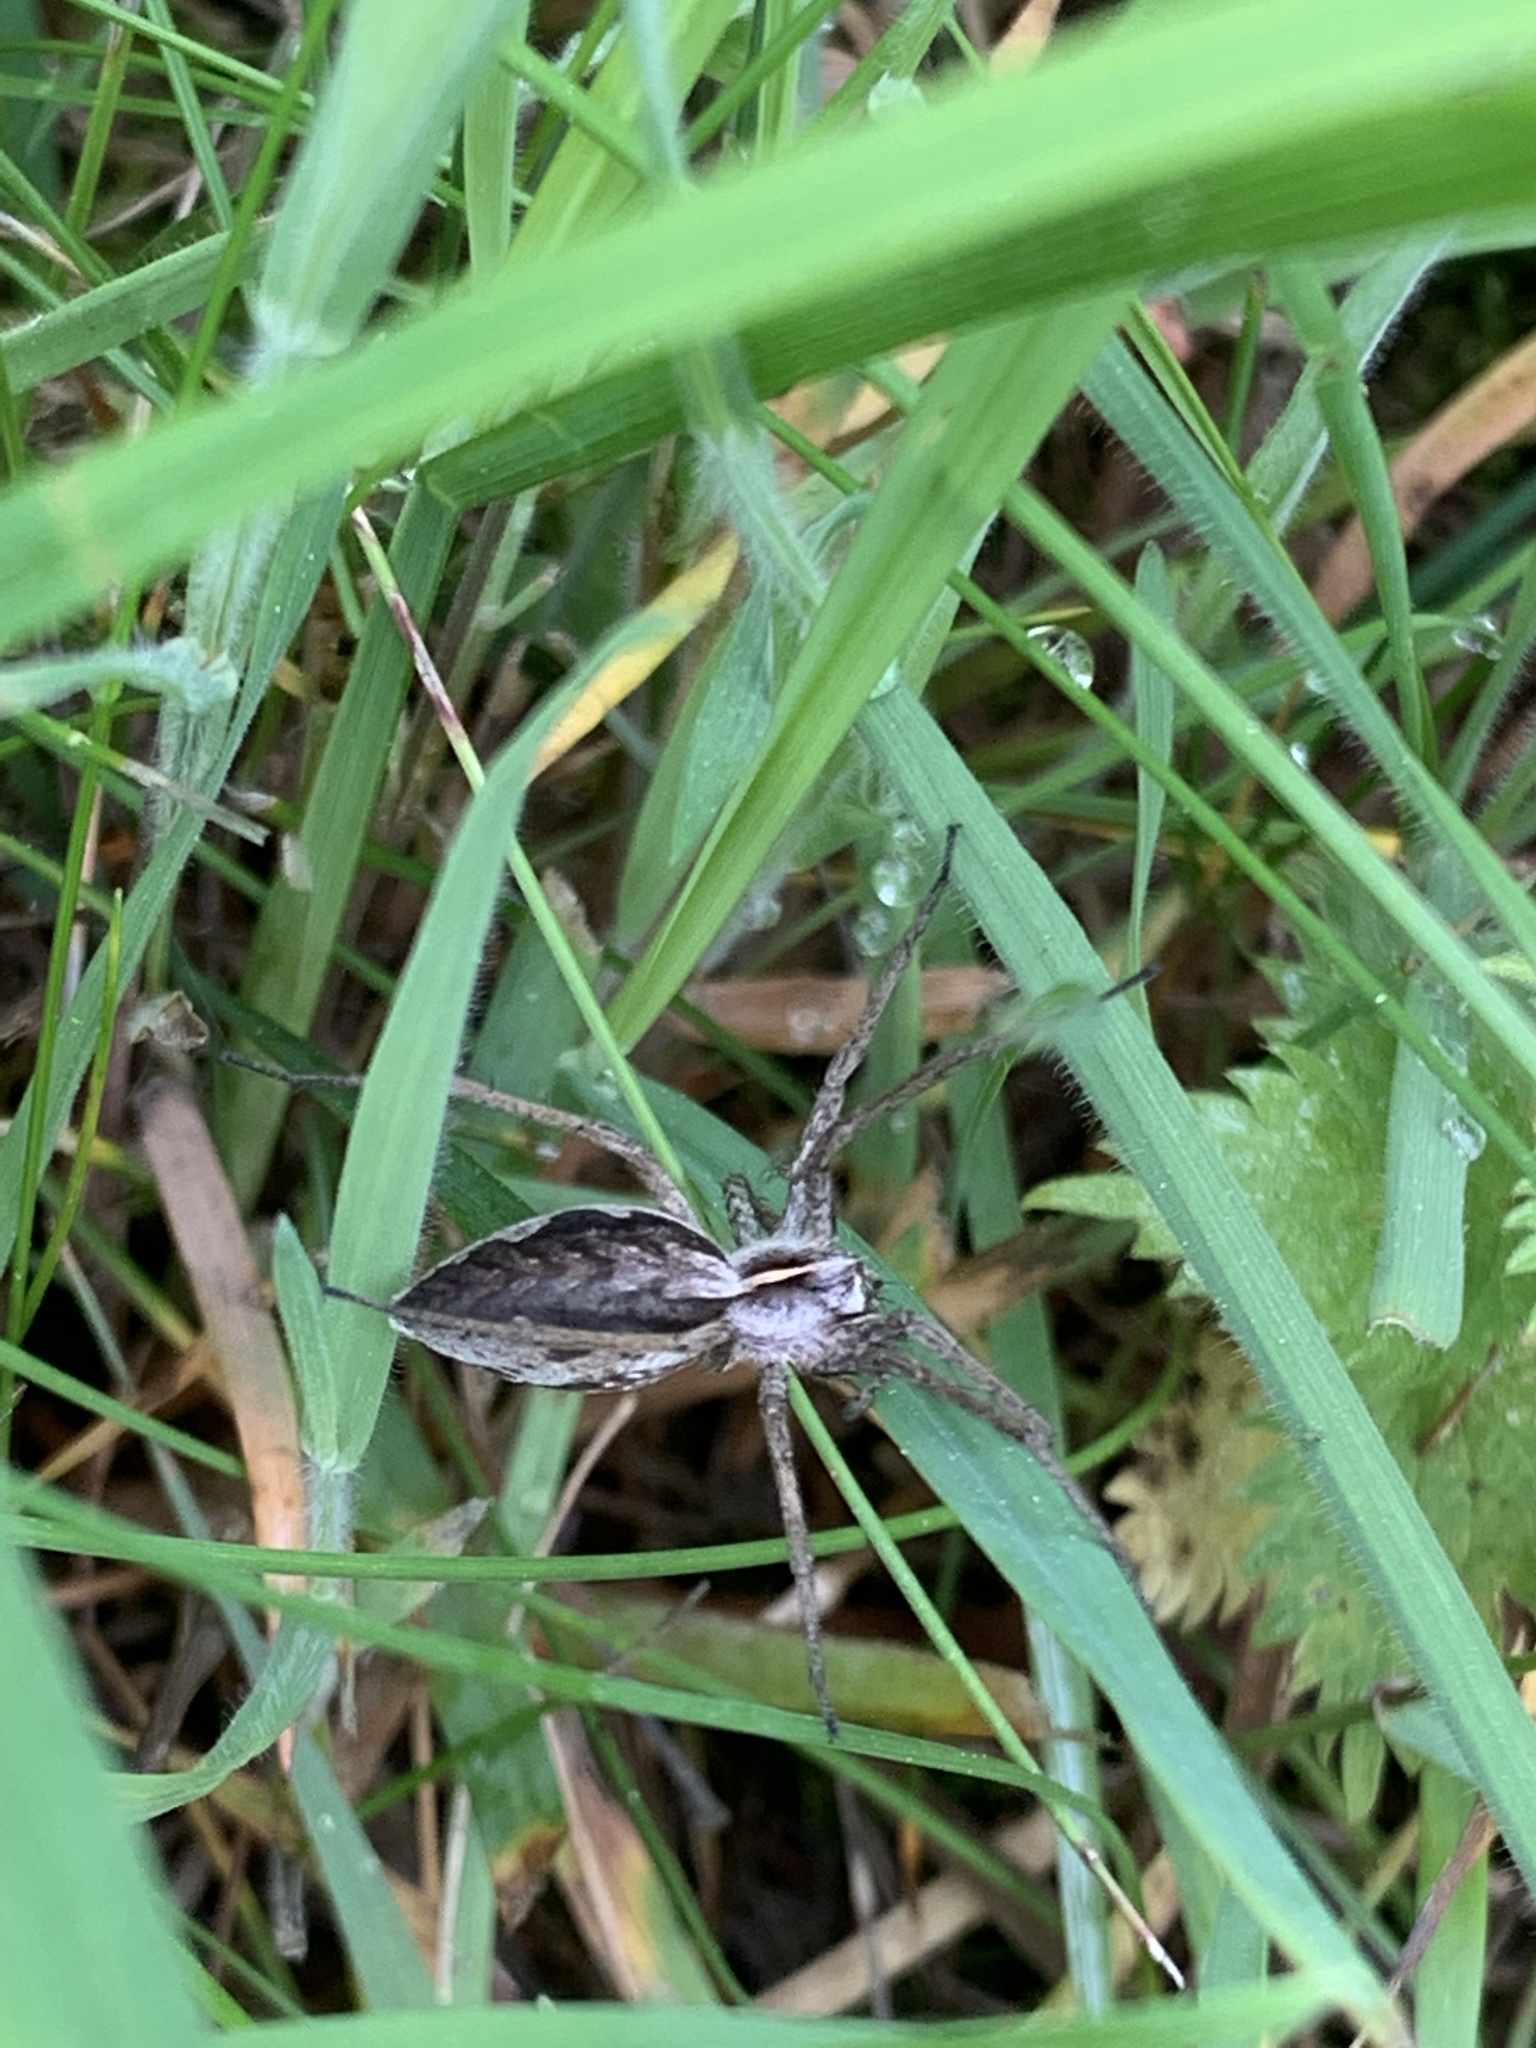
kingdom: Animalia
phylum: Arthropoda
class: Arachnida
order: Araneae
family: Pisauridae
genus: Pisaura
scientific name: Pisaura mirabilis
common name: Tent spider
